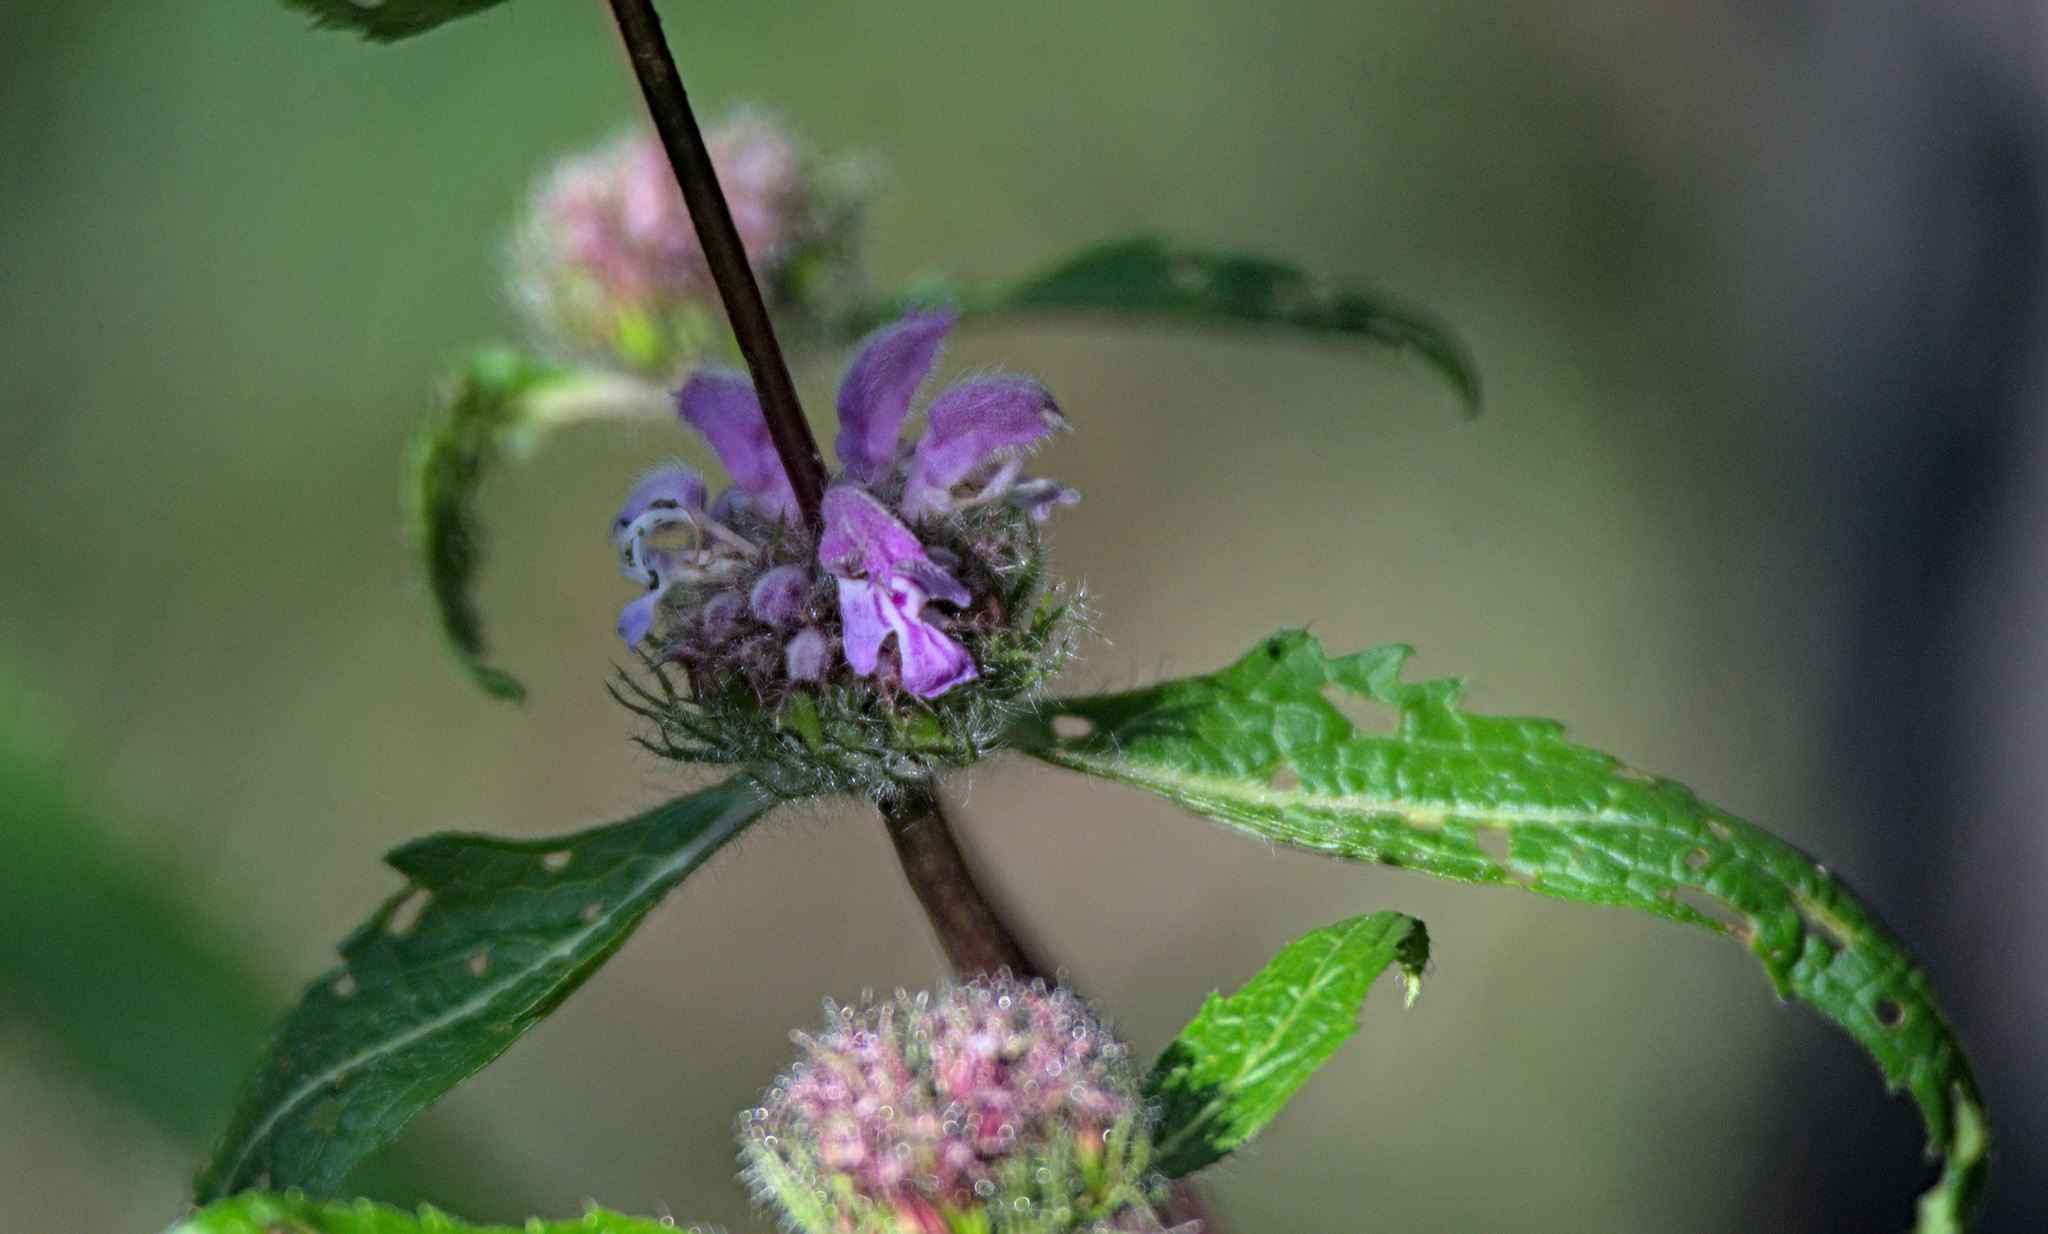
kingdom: Plantae
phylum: Tracheophyta
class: Magnoliopsida
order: Lamiales
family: Lamiaceae
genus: Phlomoides
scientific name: Phlomoides tuberosa
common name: Tuberous jerusalem sage
